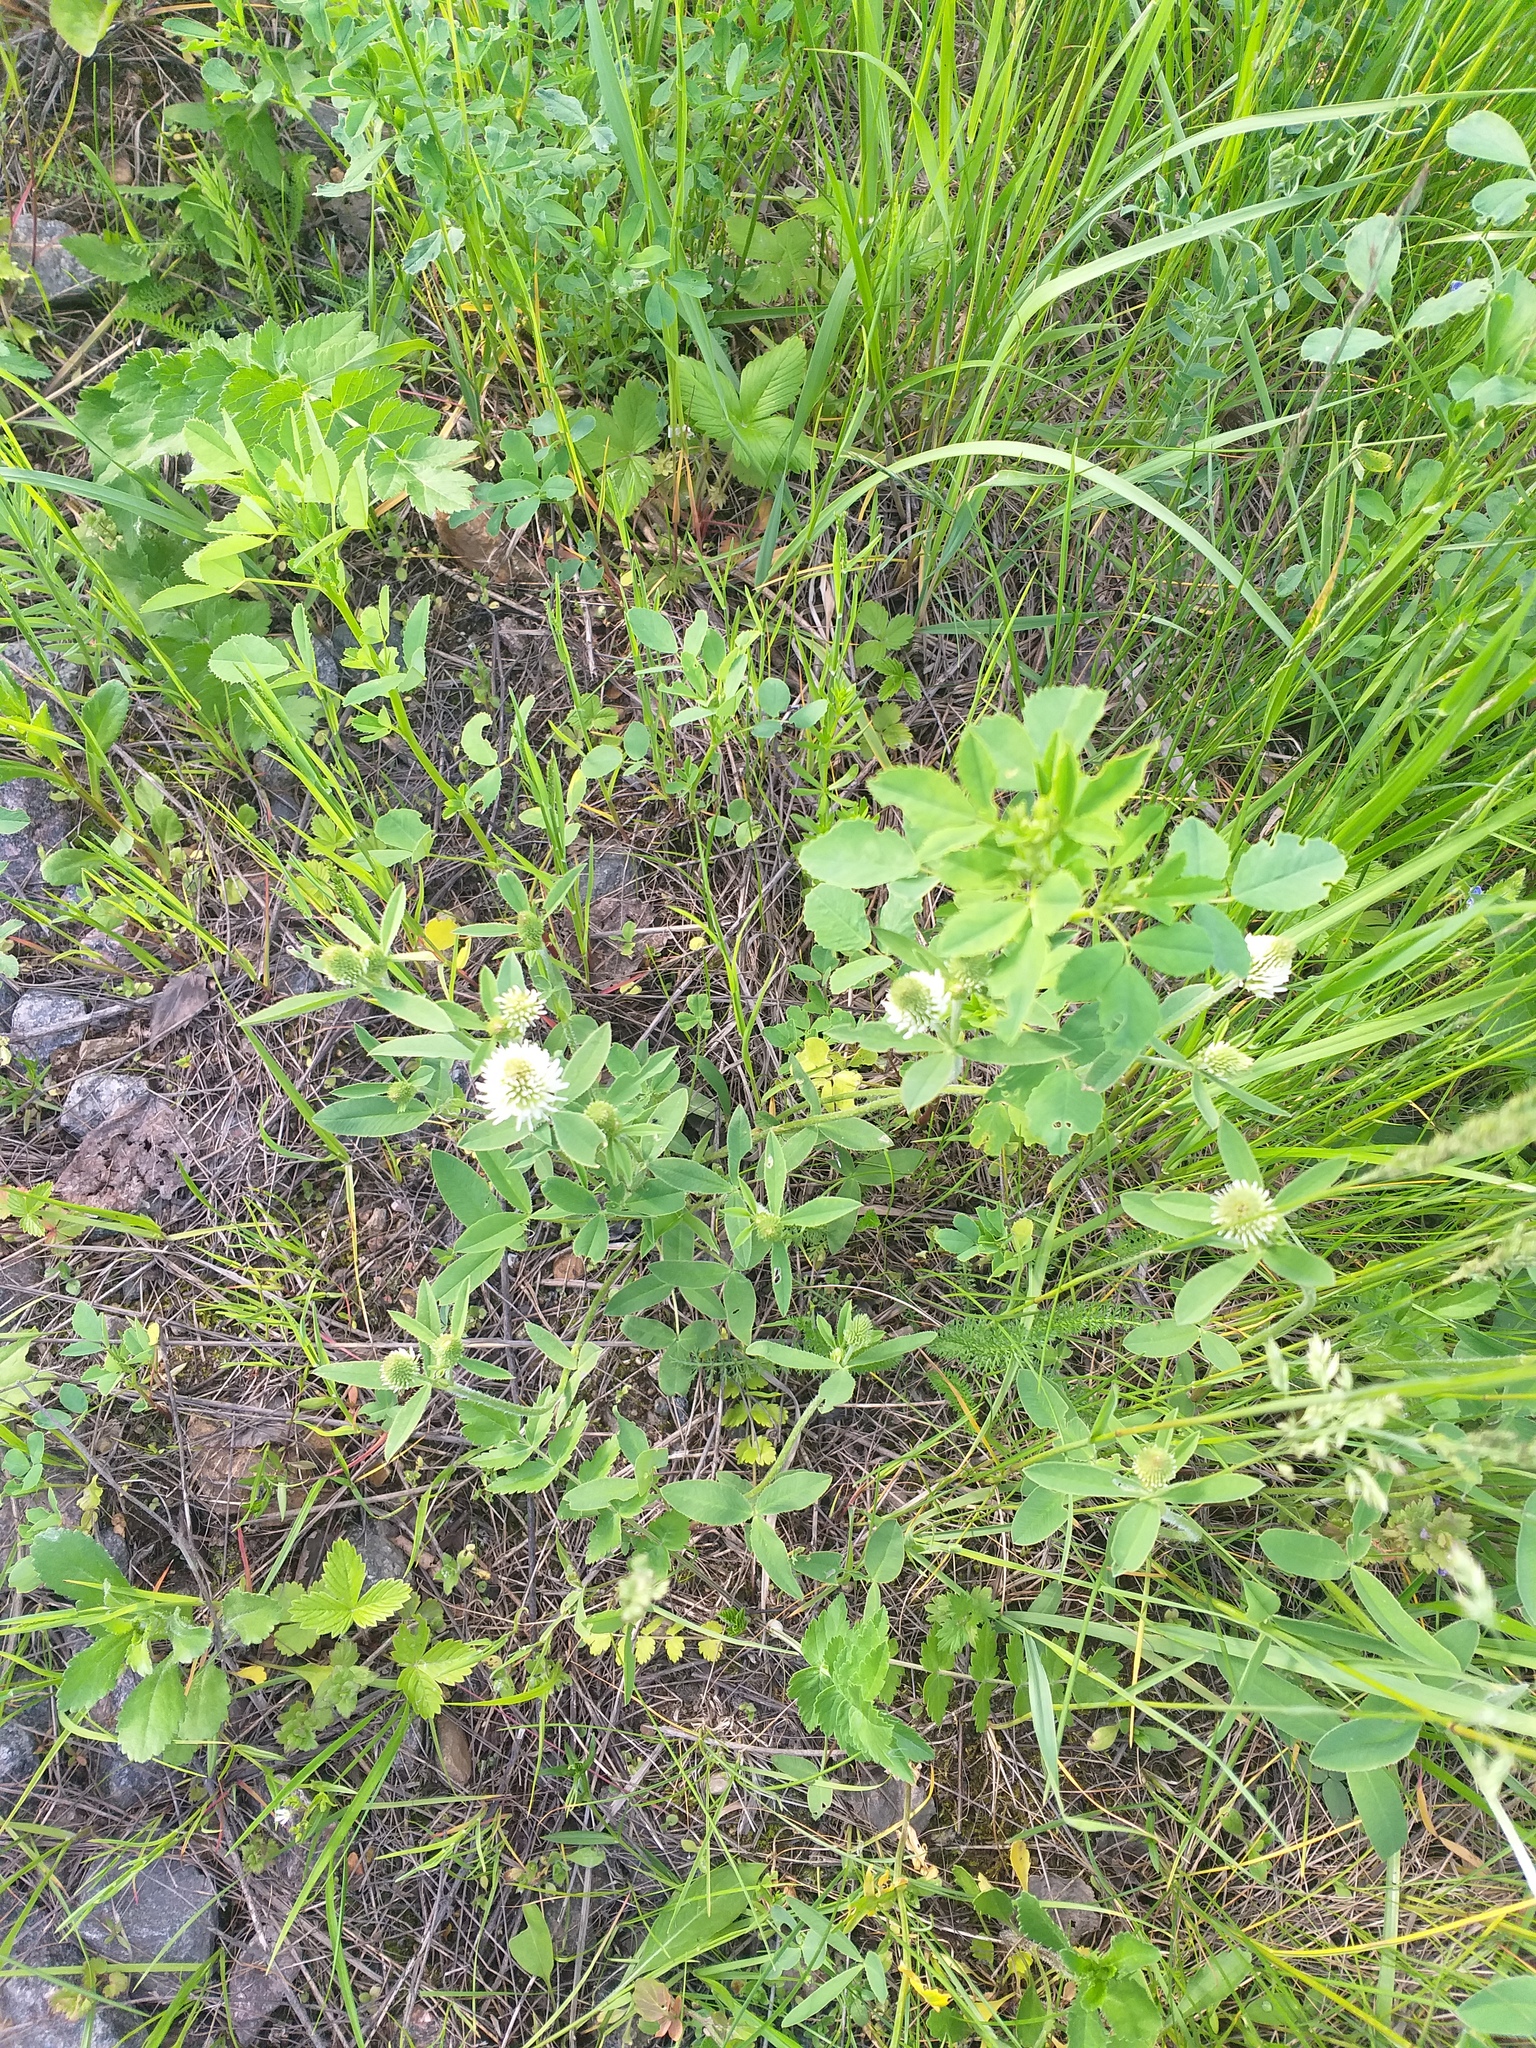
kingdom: Plantae
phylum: Tracheophyta
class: Magnoliopsida
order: Fabales
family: Fabaceae
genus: Trifolium
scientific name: Trifolium montanum
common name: Mountain clover
